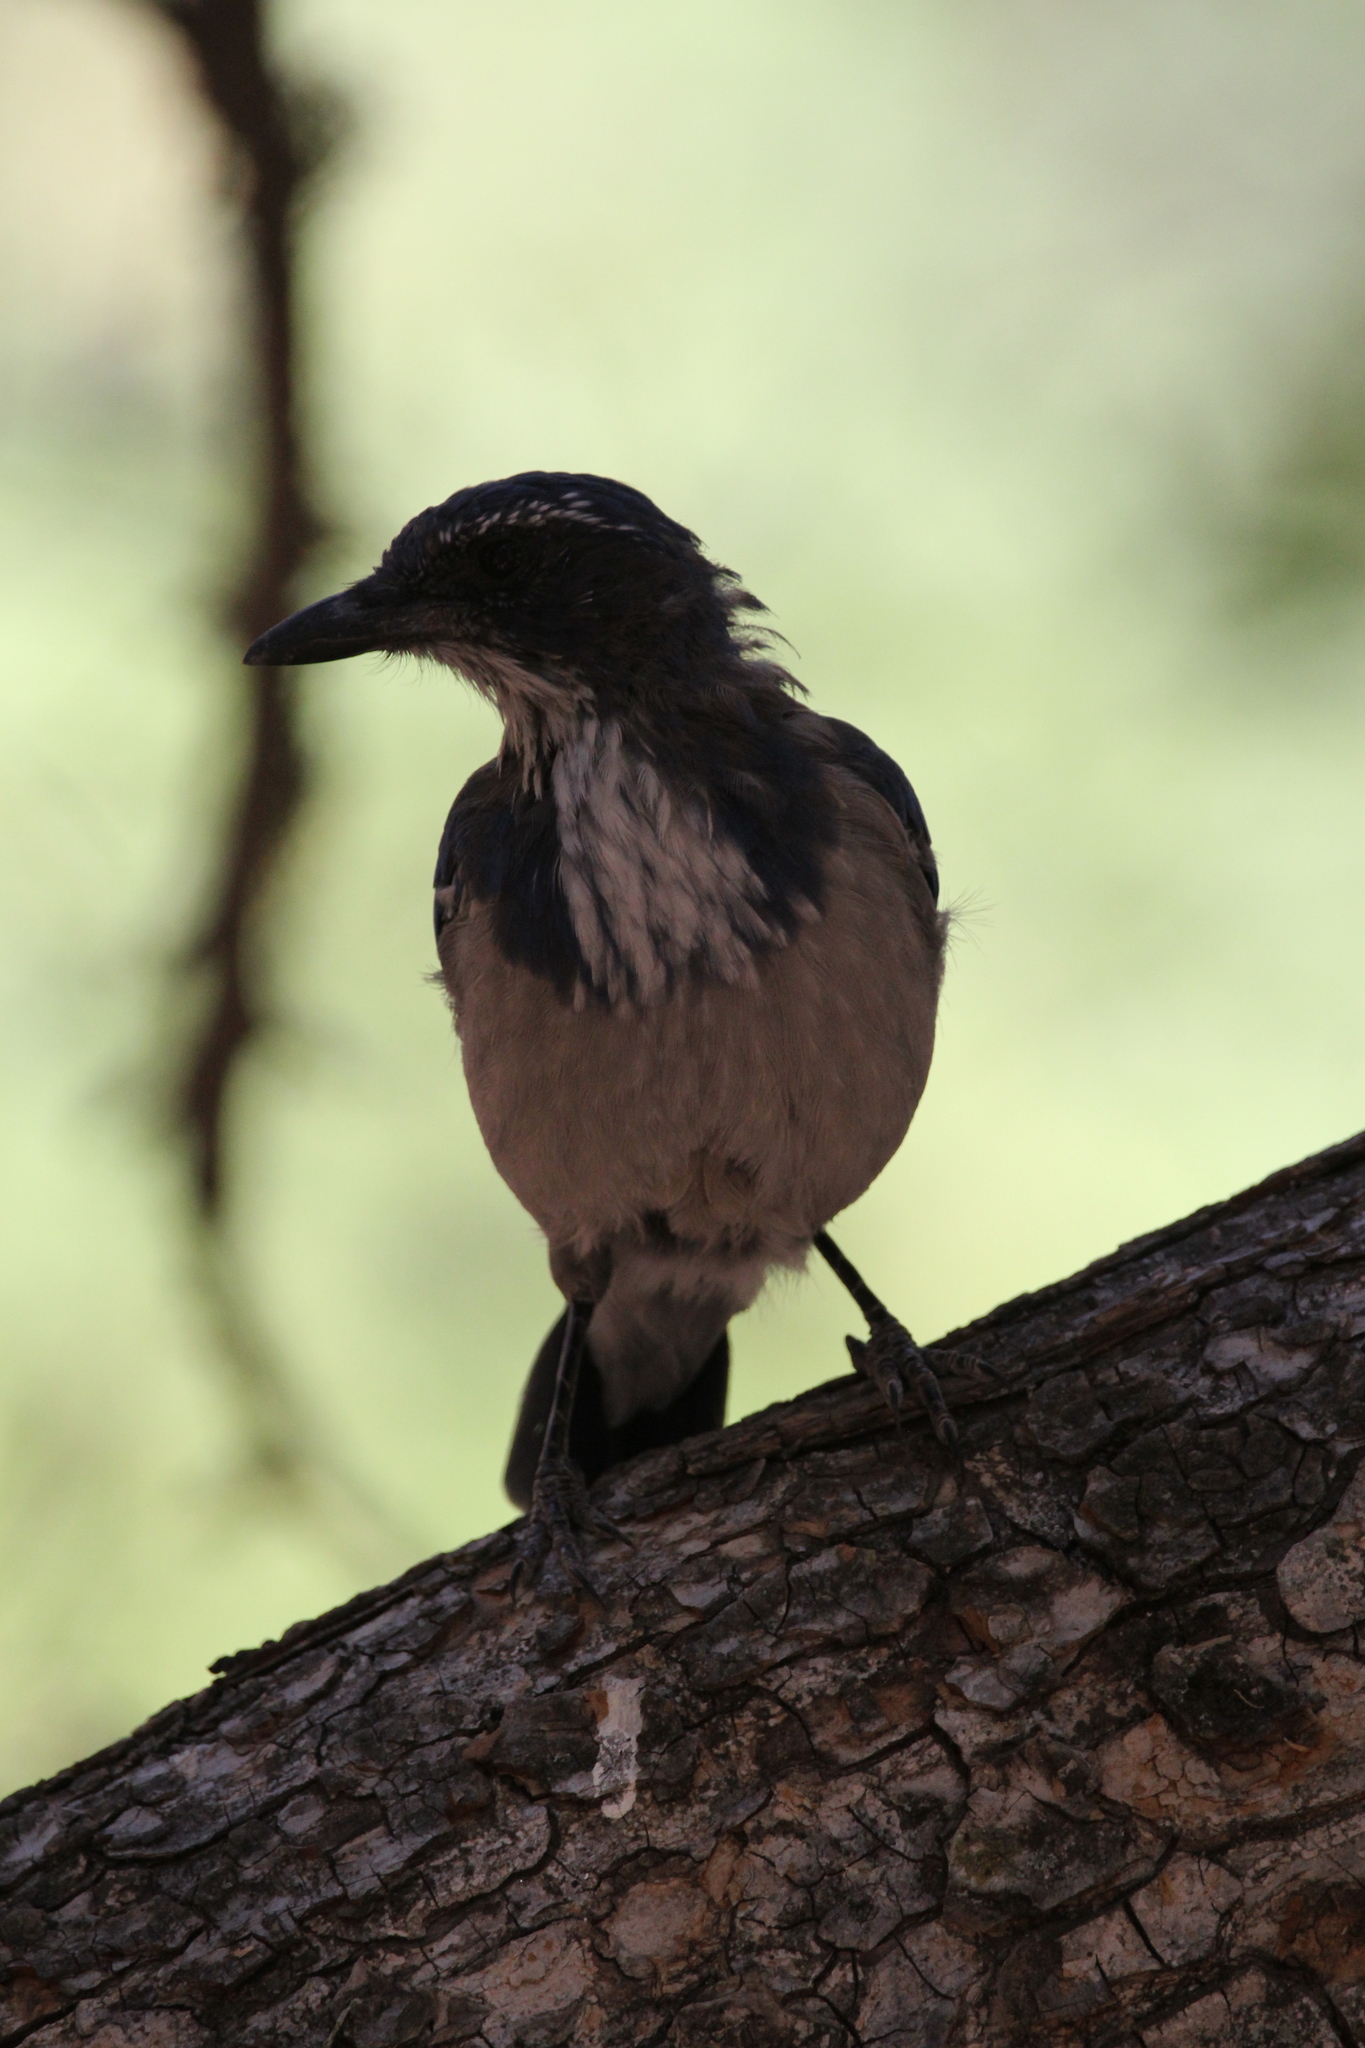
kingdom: Animalia
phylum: Chordata
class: Aves
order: Passeriformes
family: Corvidae
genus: Aphelocoma
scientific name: Aphelocoma californica
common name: California scrub-jay
